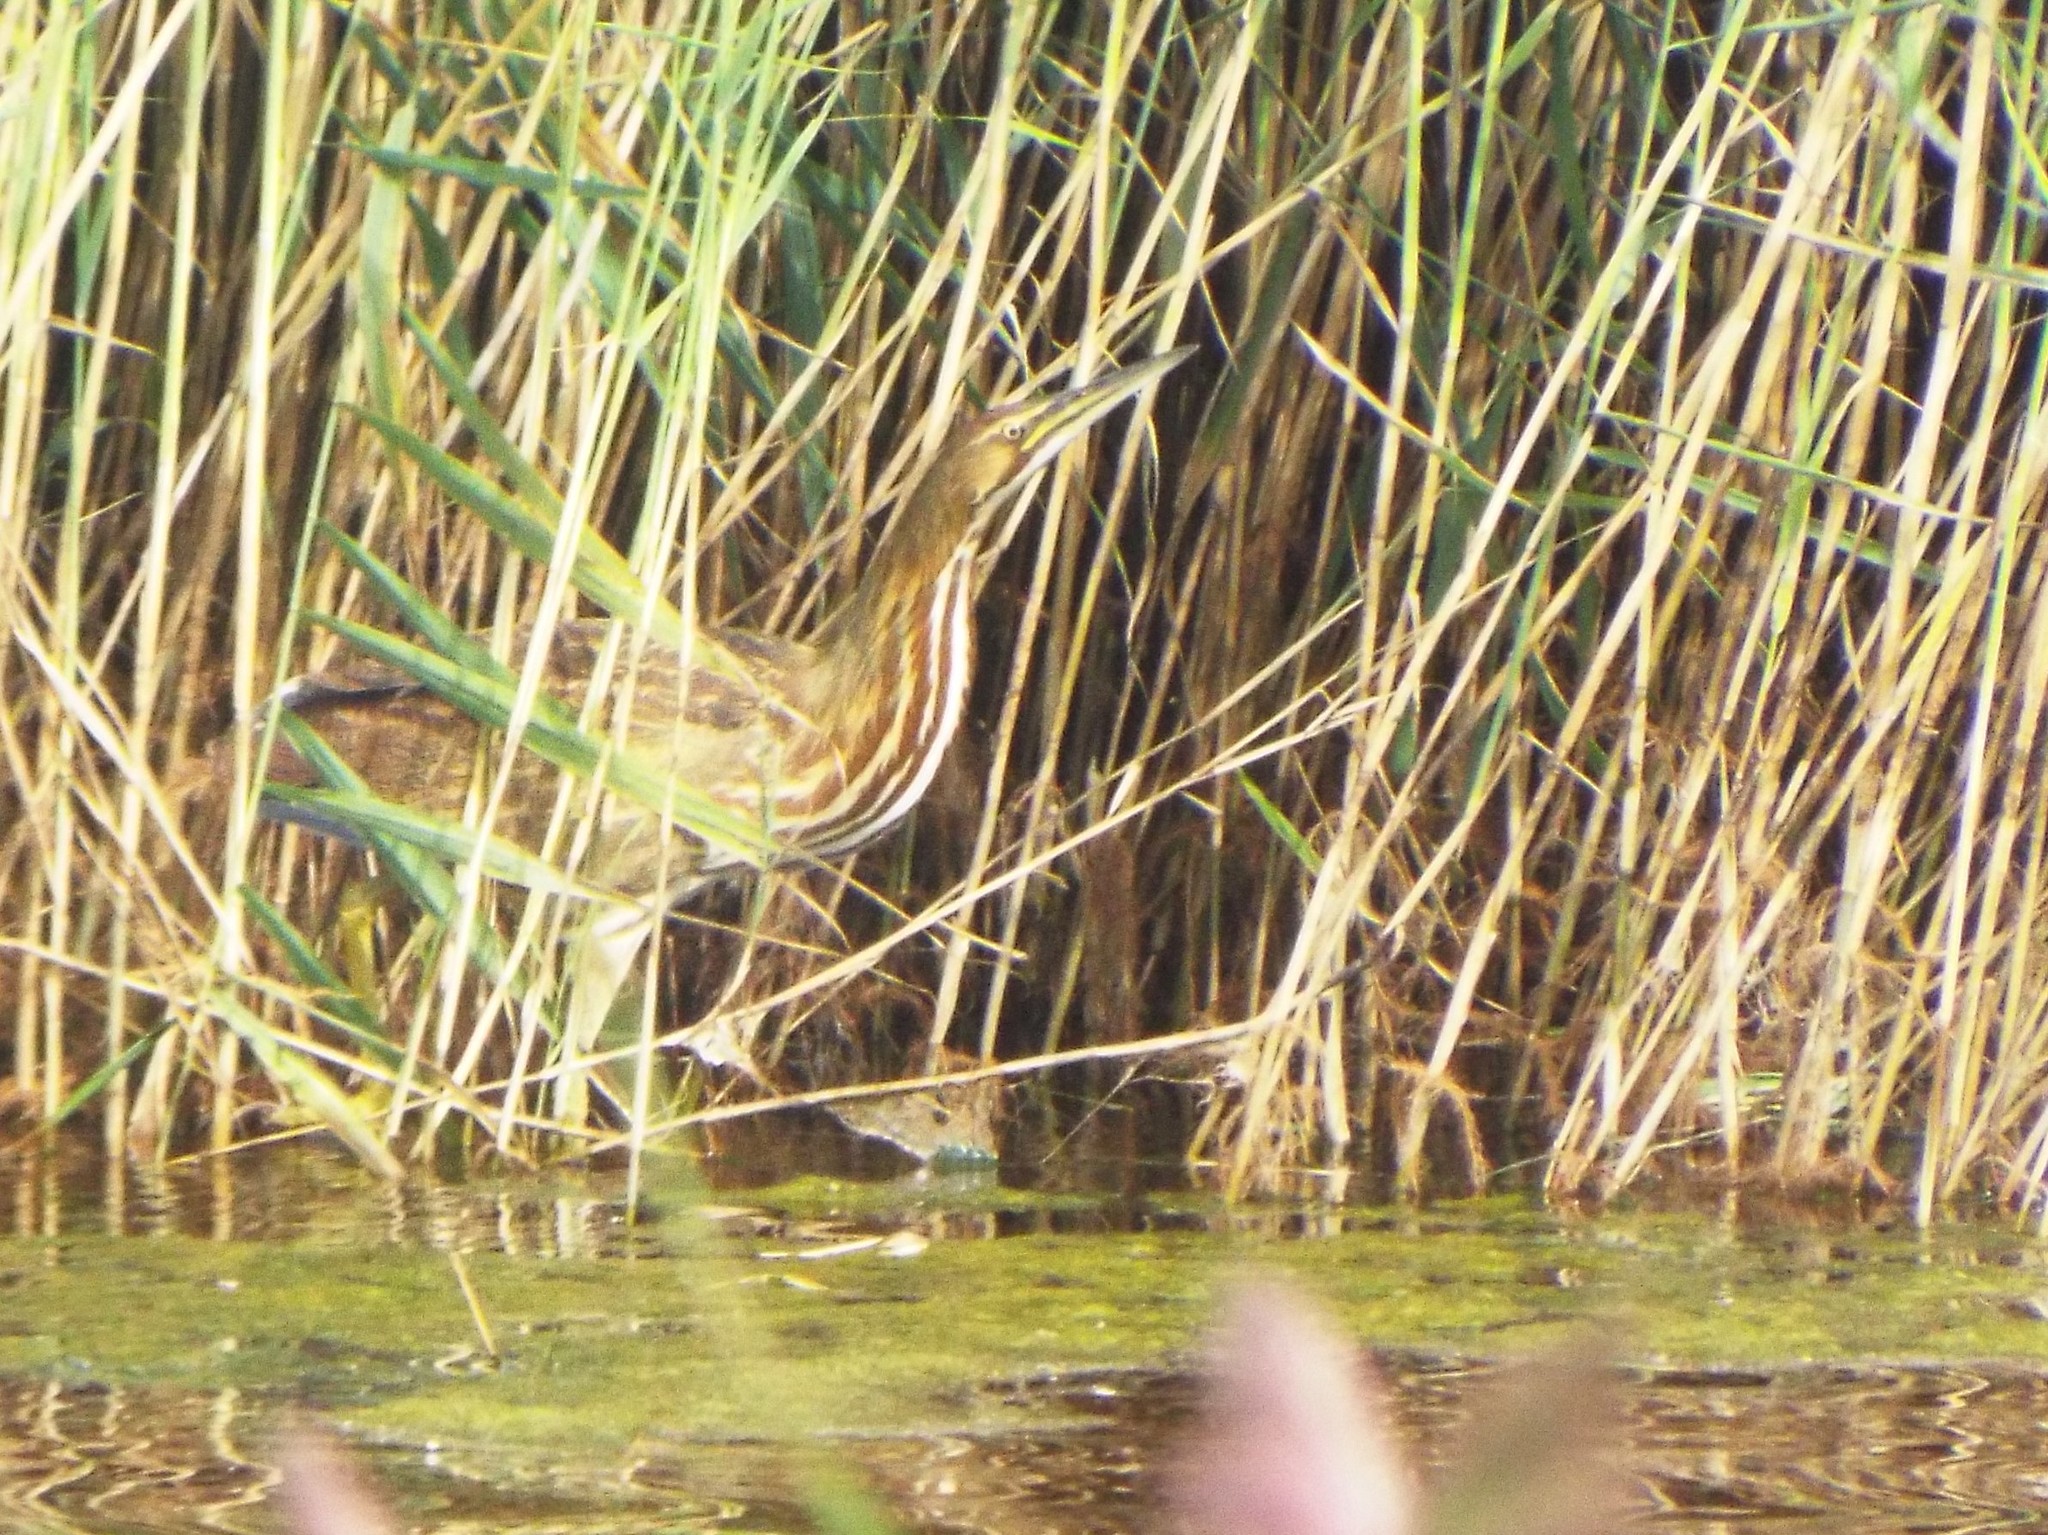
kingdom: Animalia
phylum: Chordata
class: Aves
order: Pelecaniformes
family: Ardeidae
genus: Botaurus
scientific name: Botaurus lentiginosus
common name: American bittern
